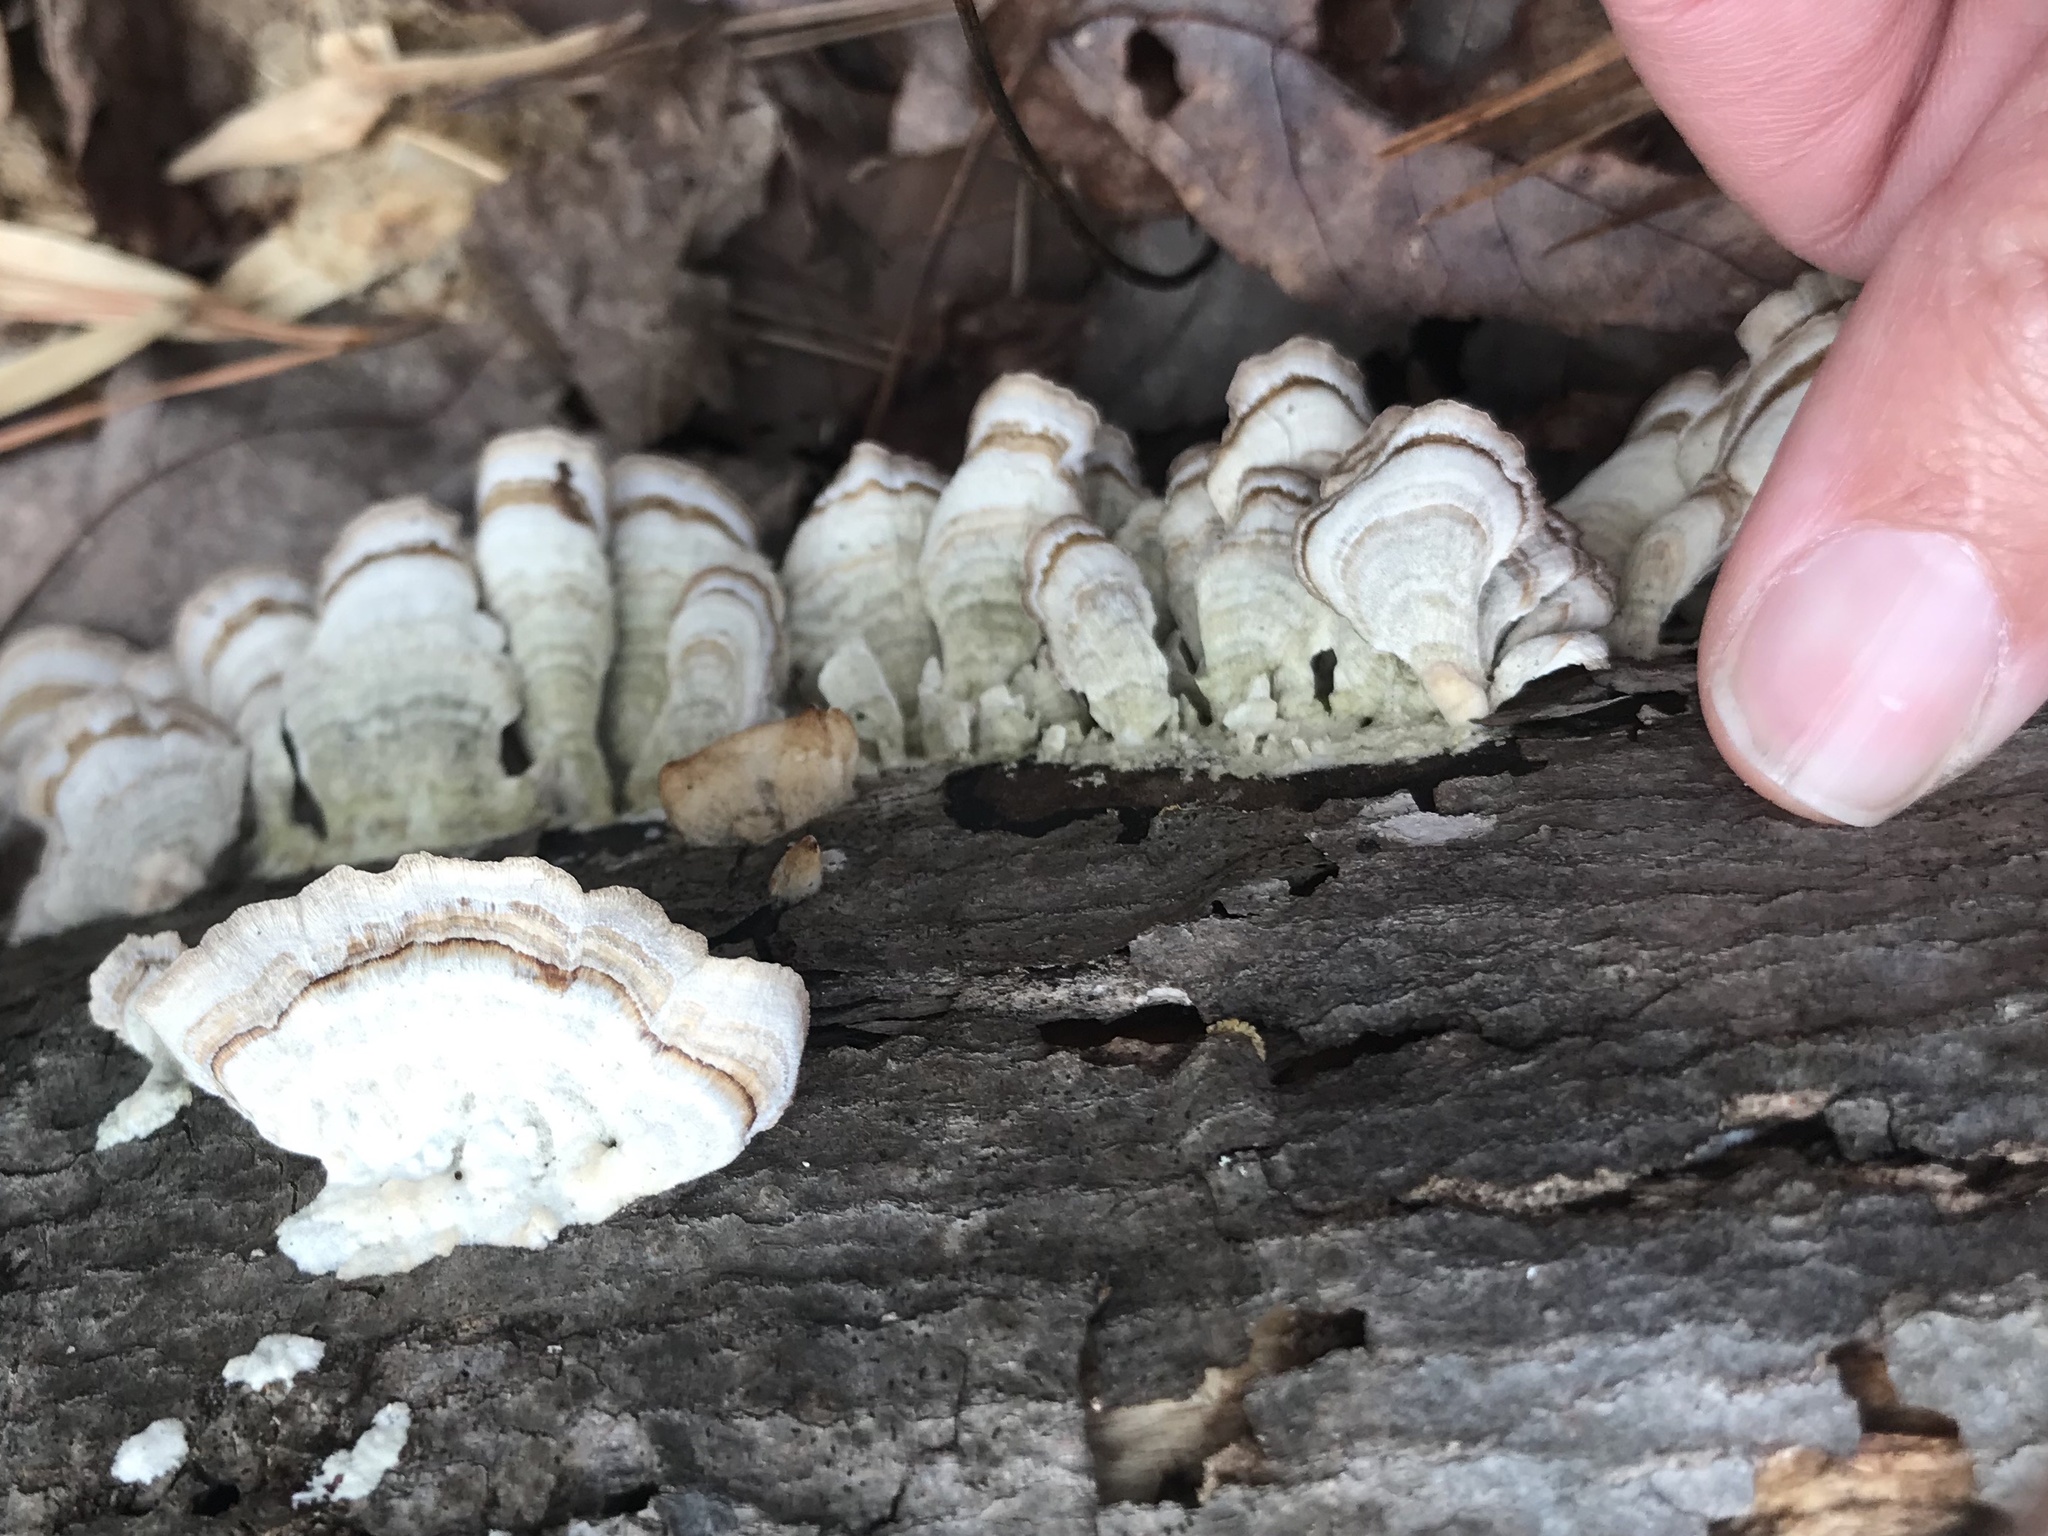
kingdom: Fungi
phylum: Basidiomycota
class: Agaricomycetes
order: Hymenochaetales
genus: Trichaptum
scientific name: Trichaptum biforme
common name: Violet-toothed polypore
